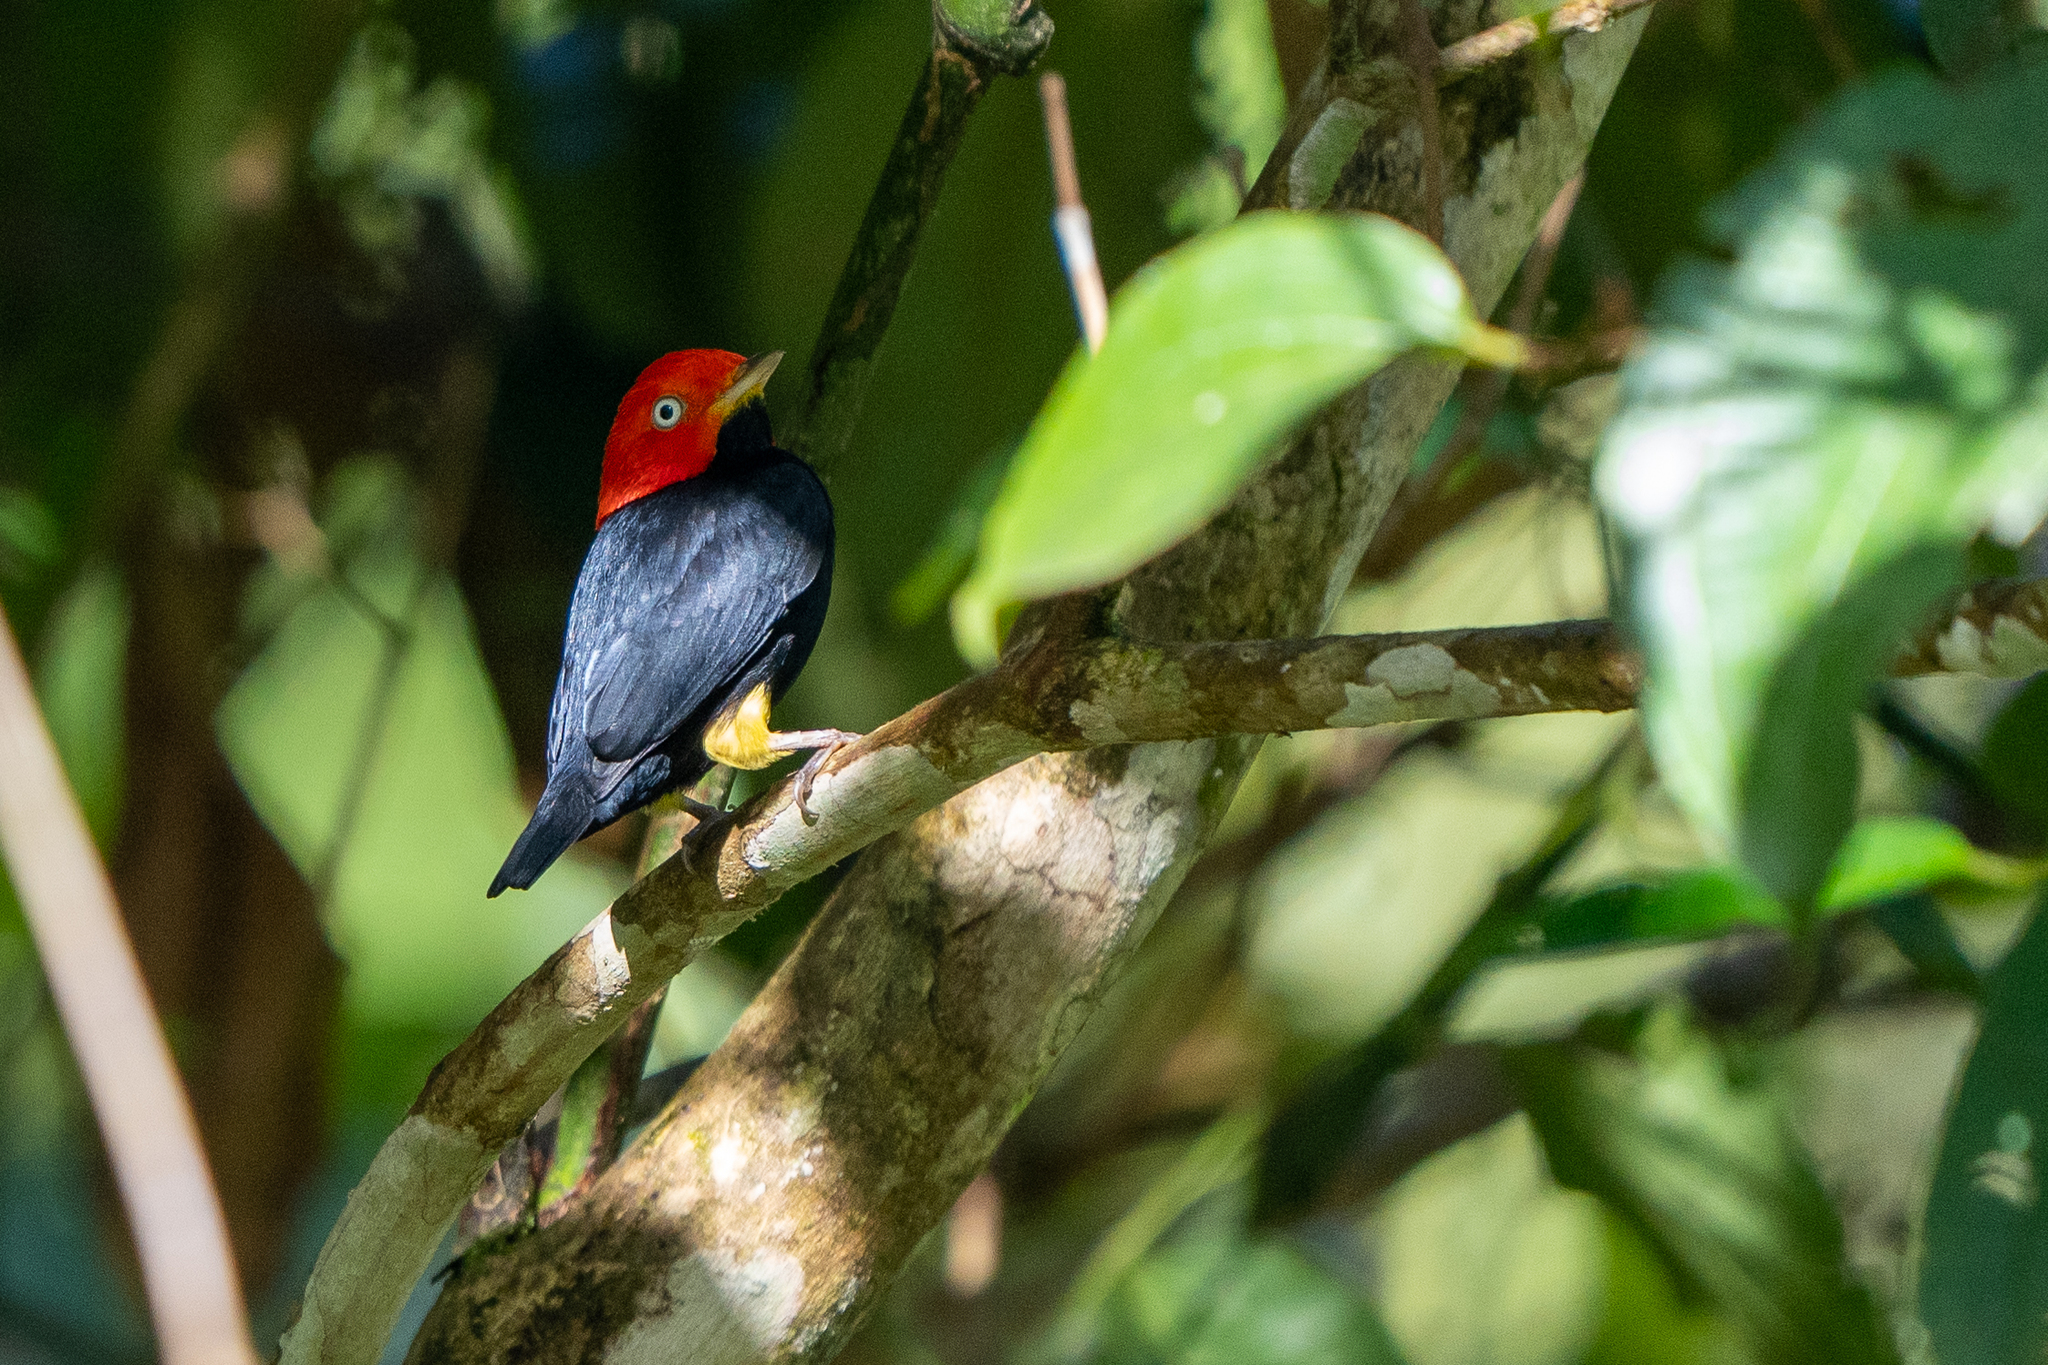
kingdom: Animalia
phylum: Chordata
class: Aves
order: Passeriformes
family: Pipridae
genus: Pipra
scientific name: Pipra mentalis
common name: Red-capped manakin
